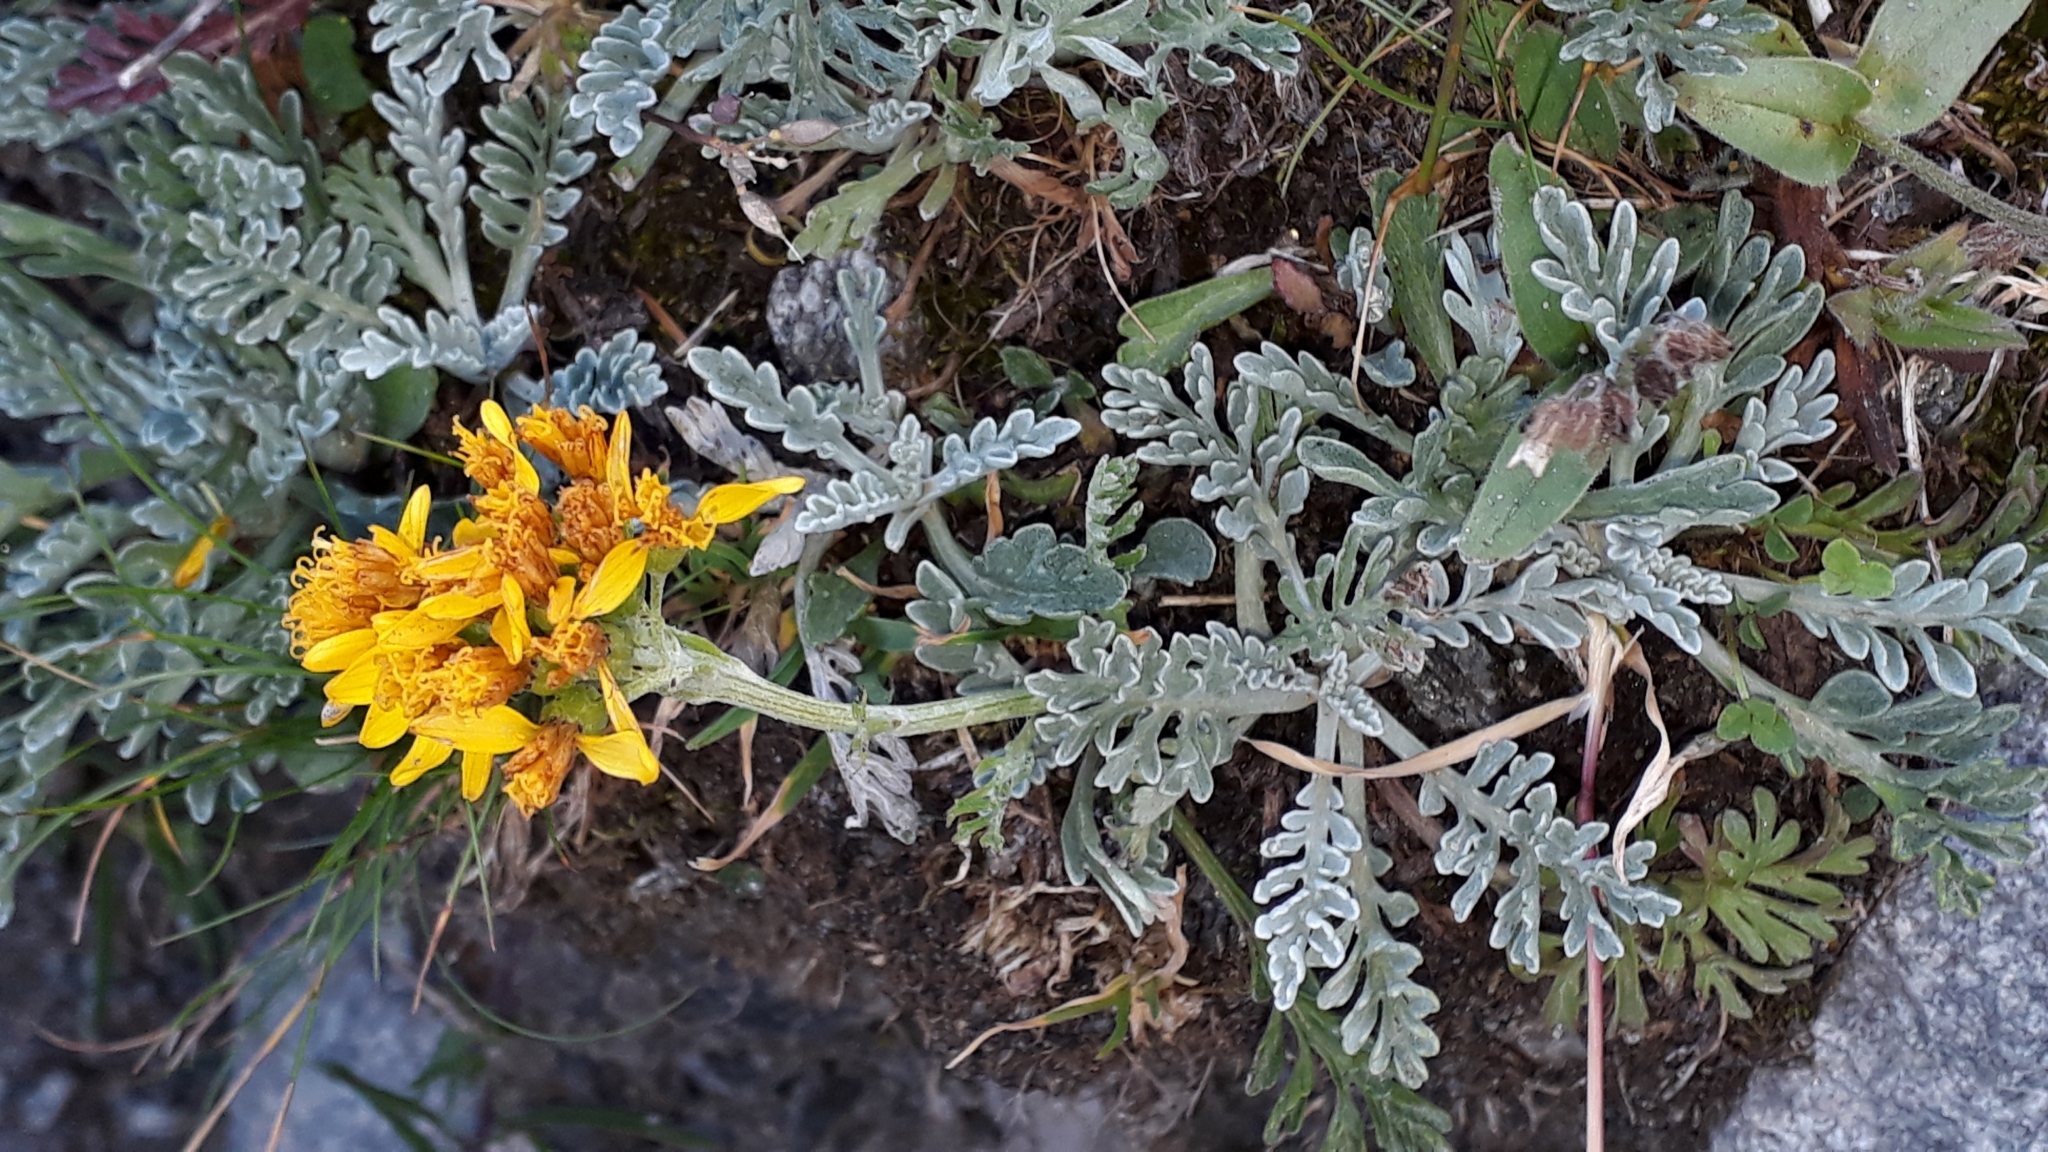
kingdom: Plantae
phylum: Tracheophyta
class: Magnoliopsida
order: Asterales
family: Asteraceae
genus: Jacobaea
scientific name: Jacobaea incana
